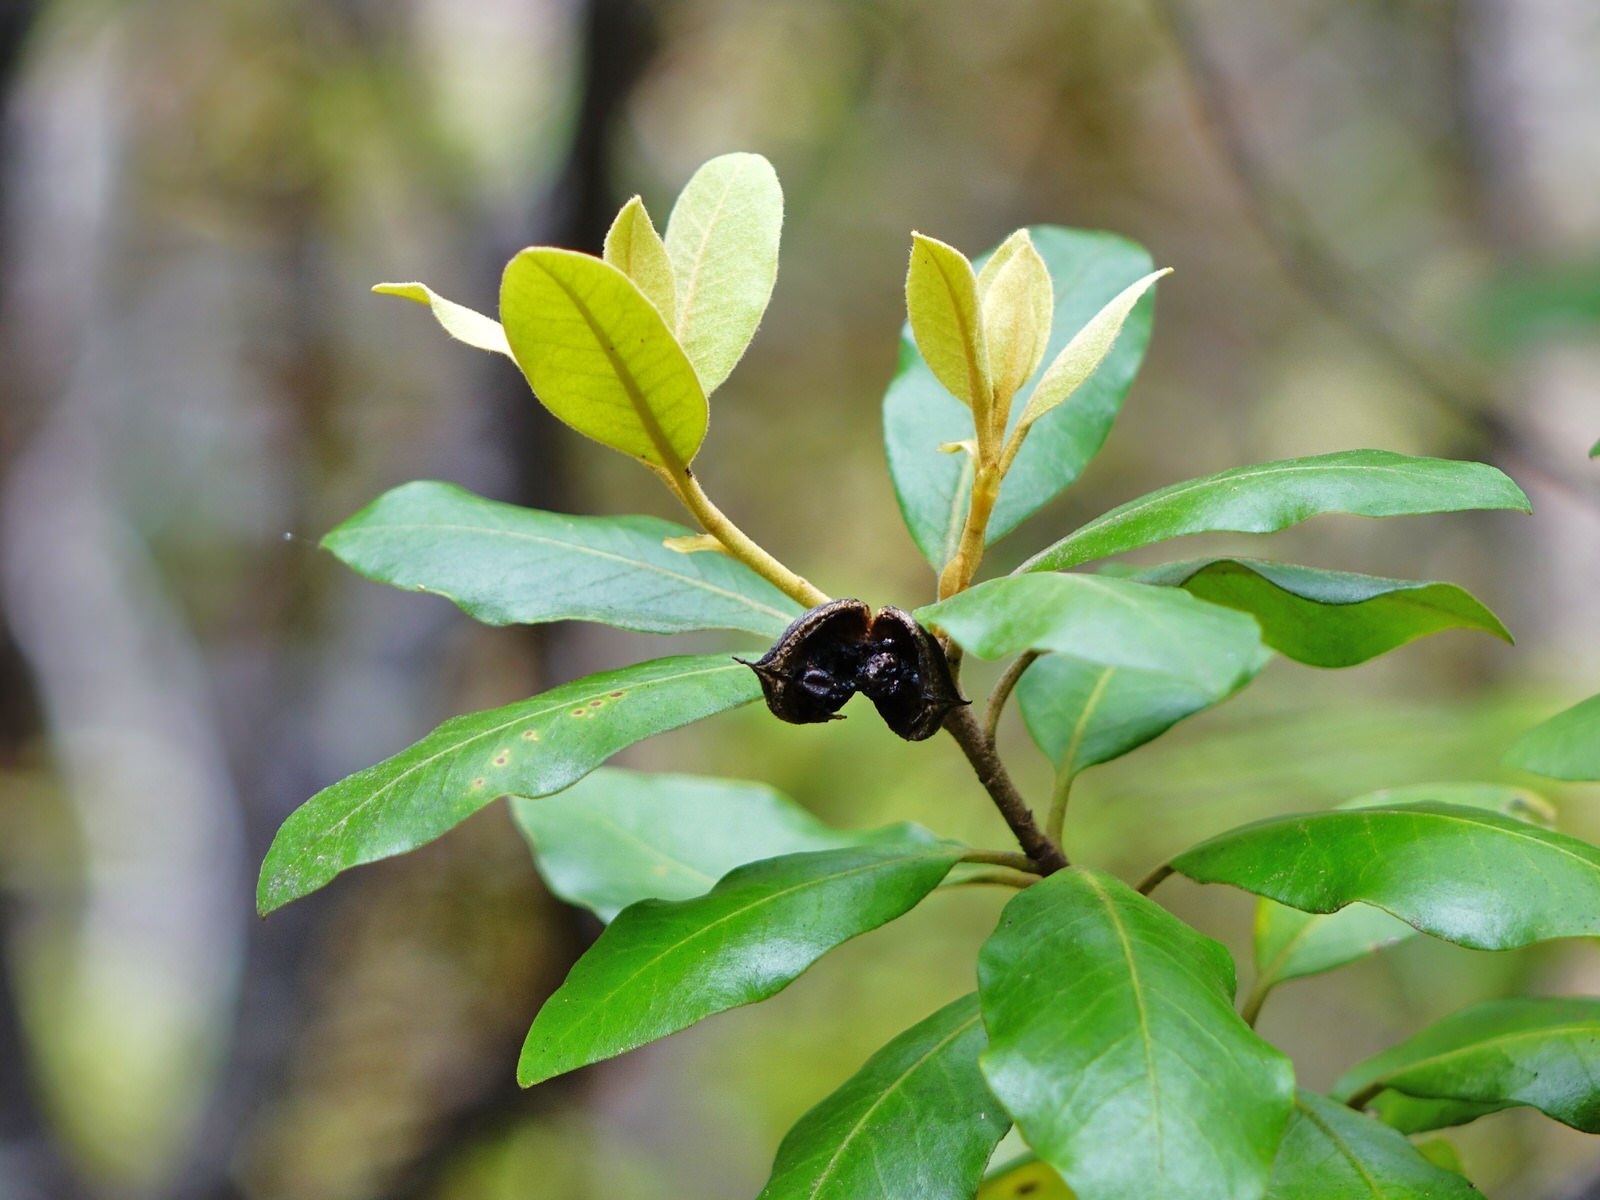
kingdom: Plantae
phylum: Tracheophyta
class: Magnoliopsida
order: Apiales
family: Pittosporaceae
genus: Pittosporum
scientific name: Pittosporum ellipticum
